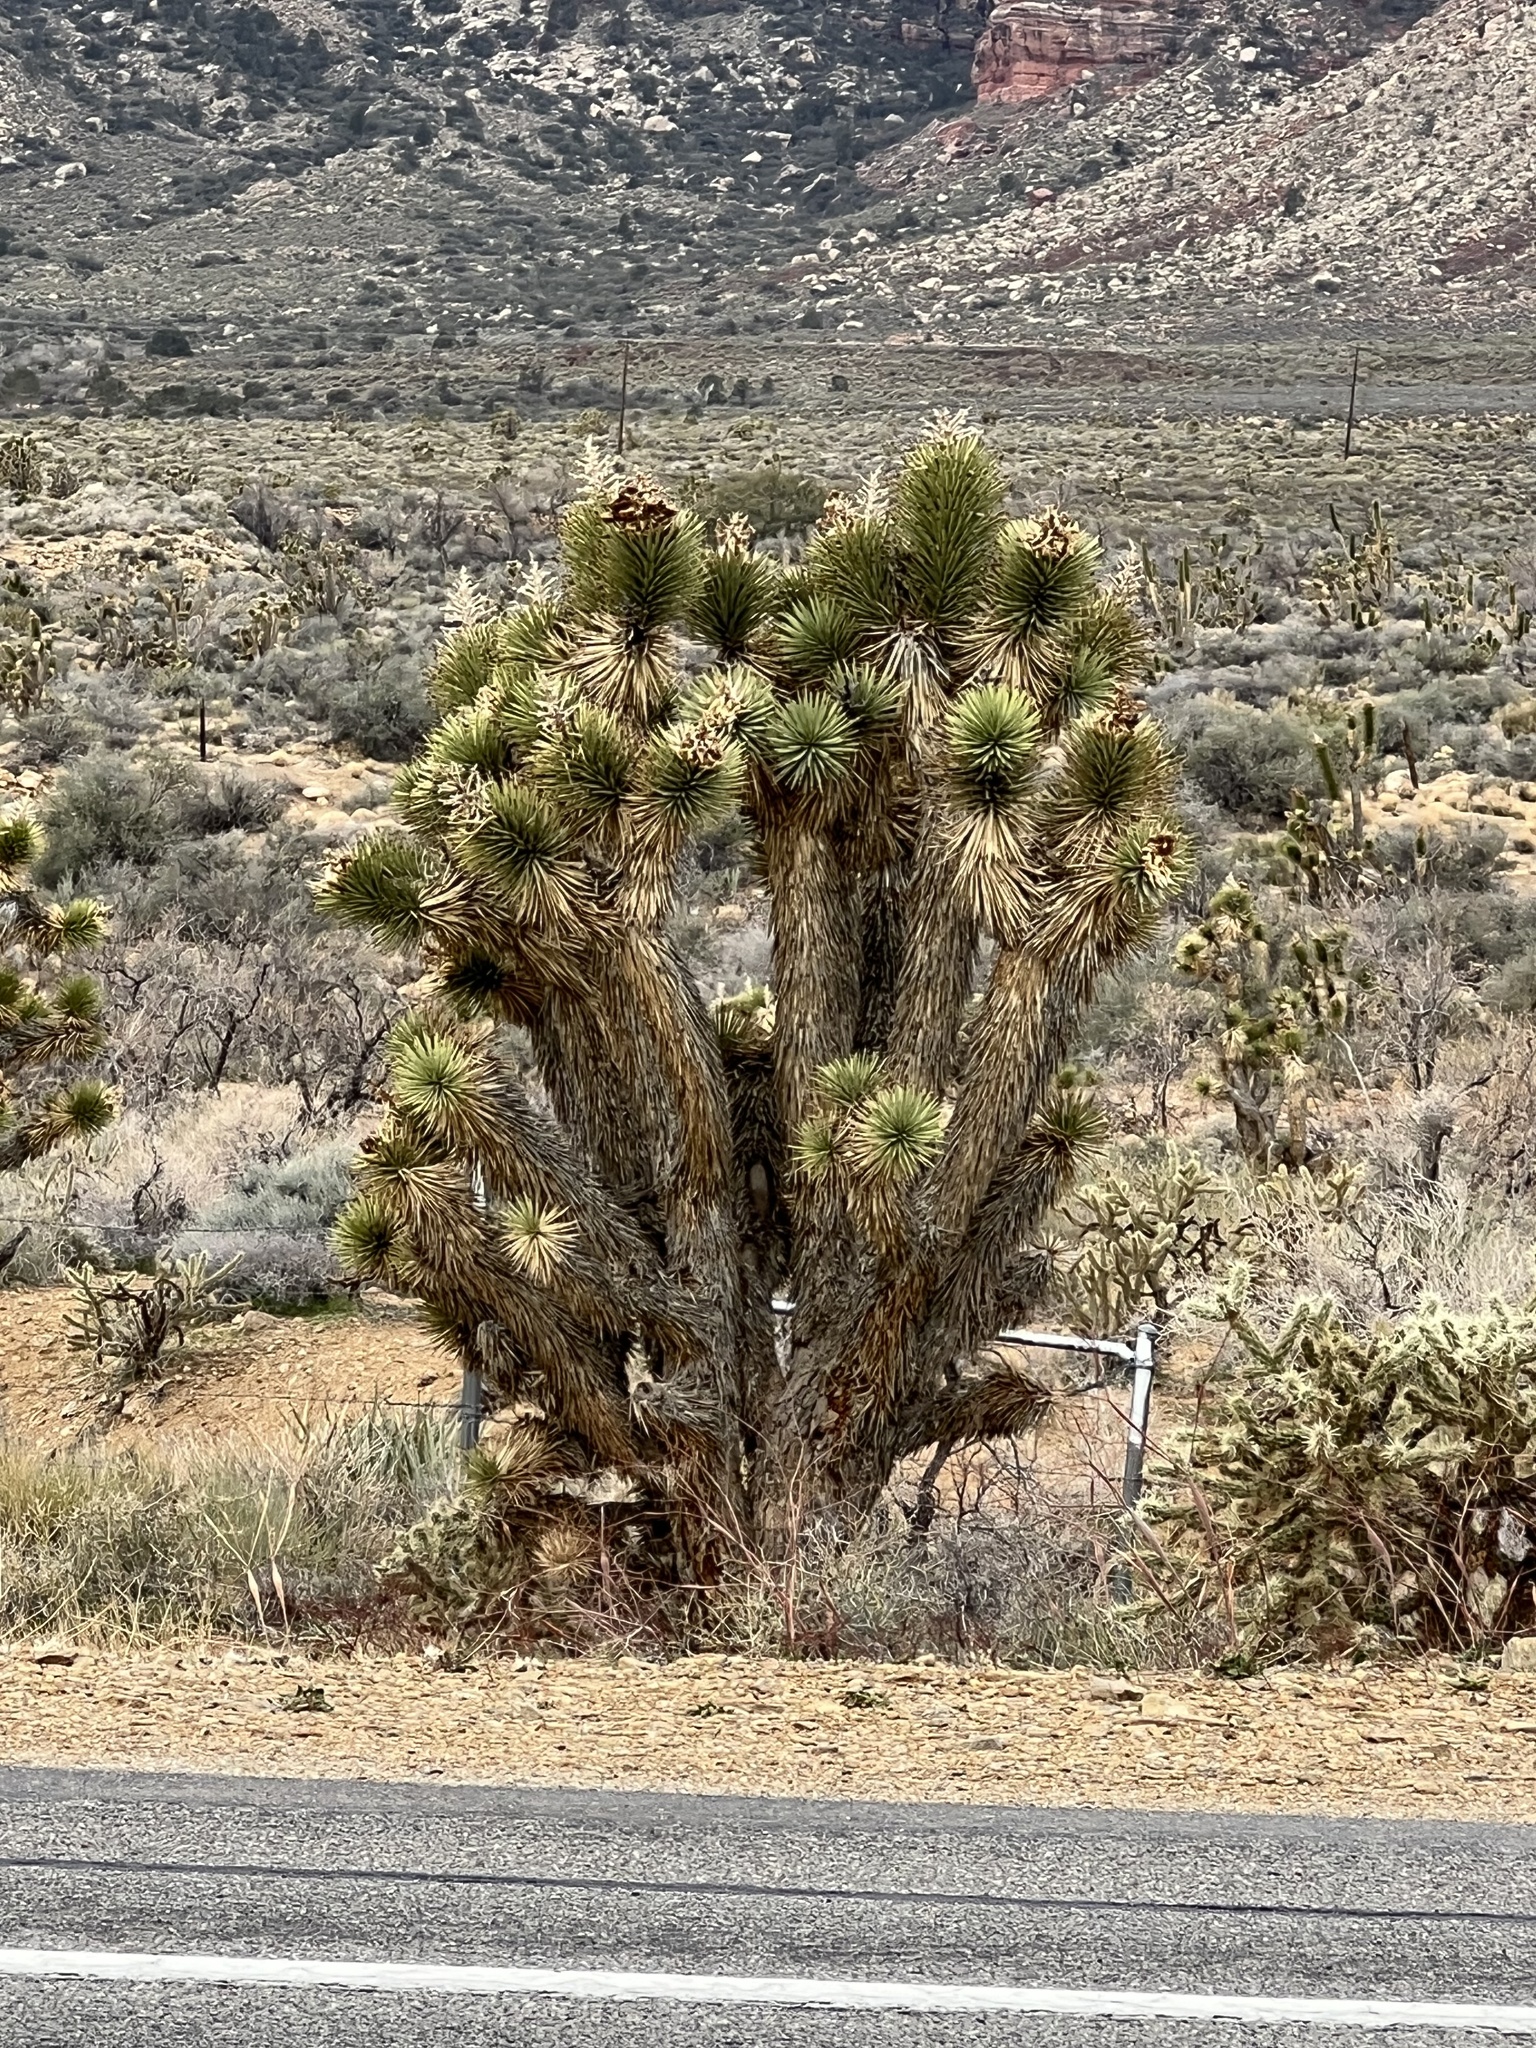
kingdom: Plantae
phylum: Tracheophyta
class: Liliopsida
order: Asparagales
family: Asparagaceae
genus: Yucca
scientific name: Yucca brevifolia
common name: Joshua tree
